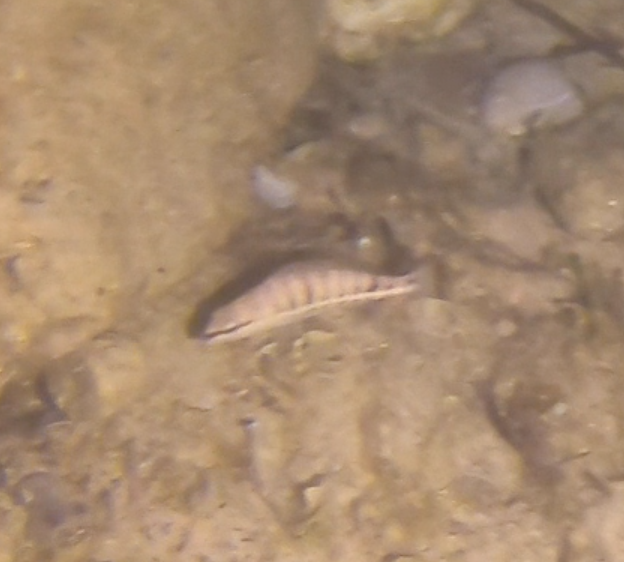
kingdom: Animalia
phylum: Chordata
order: Perciformes
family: Serranidae
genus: Serranus
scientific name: Serranus cabrilla
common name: Comber
